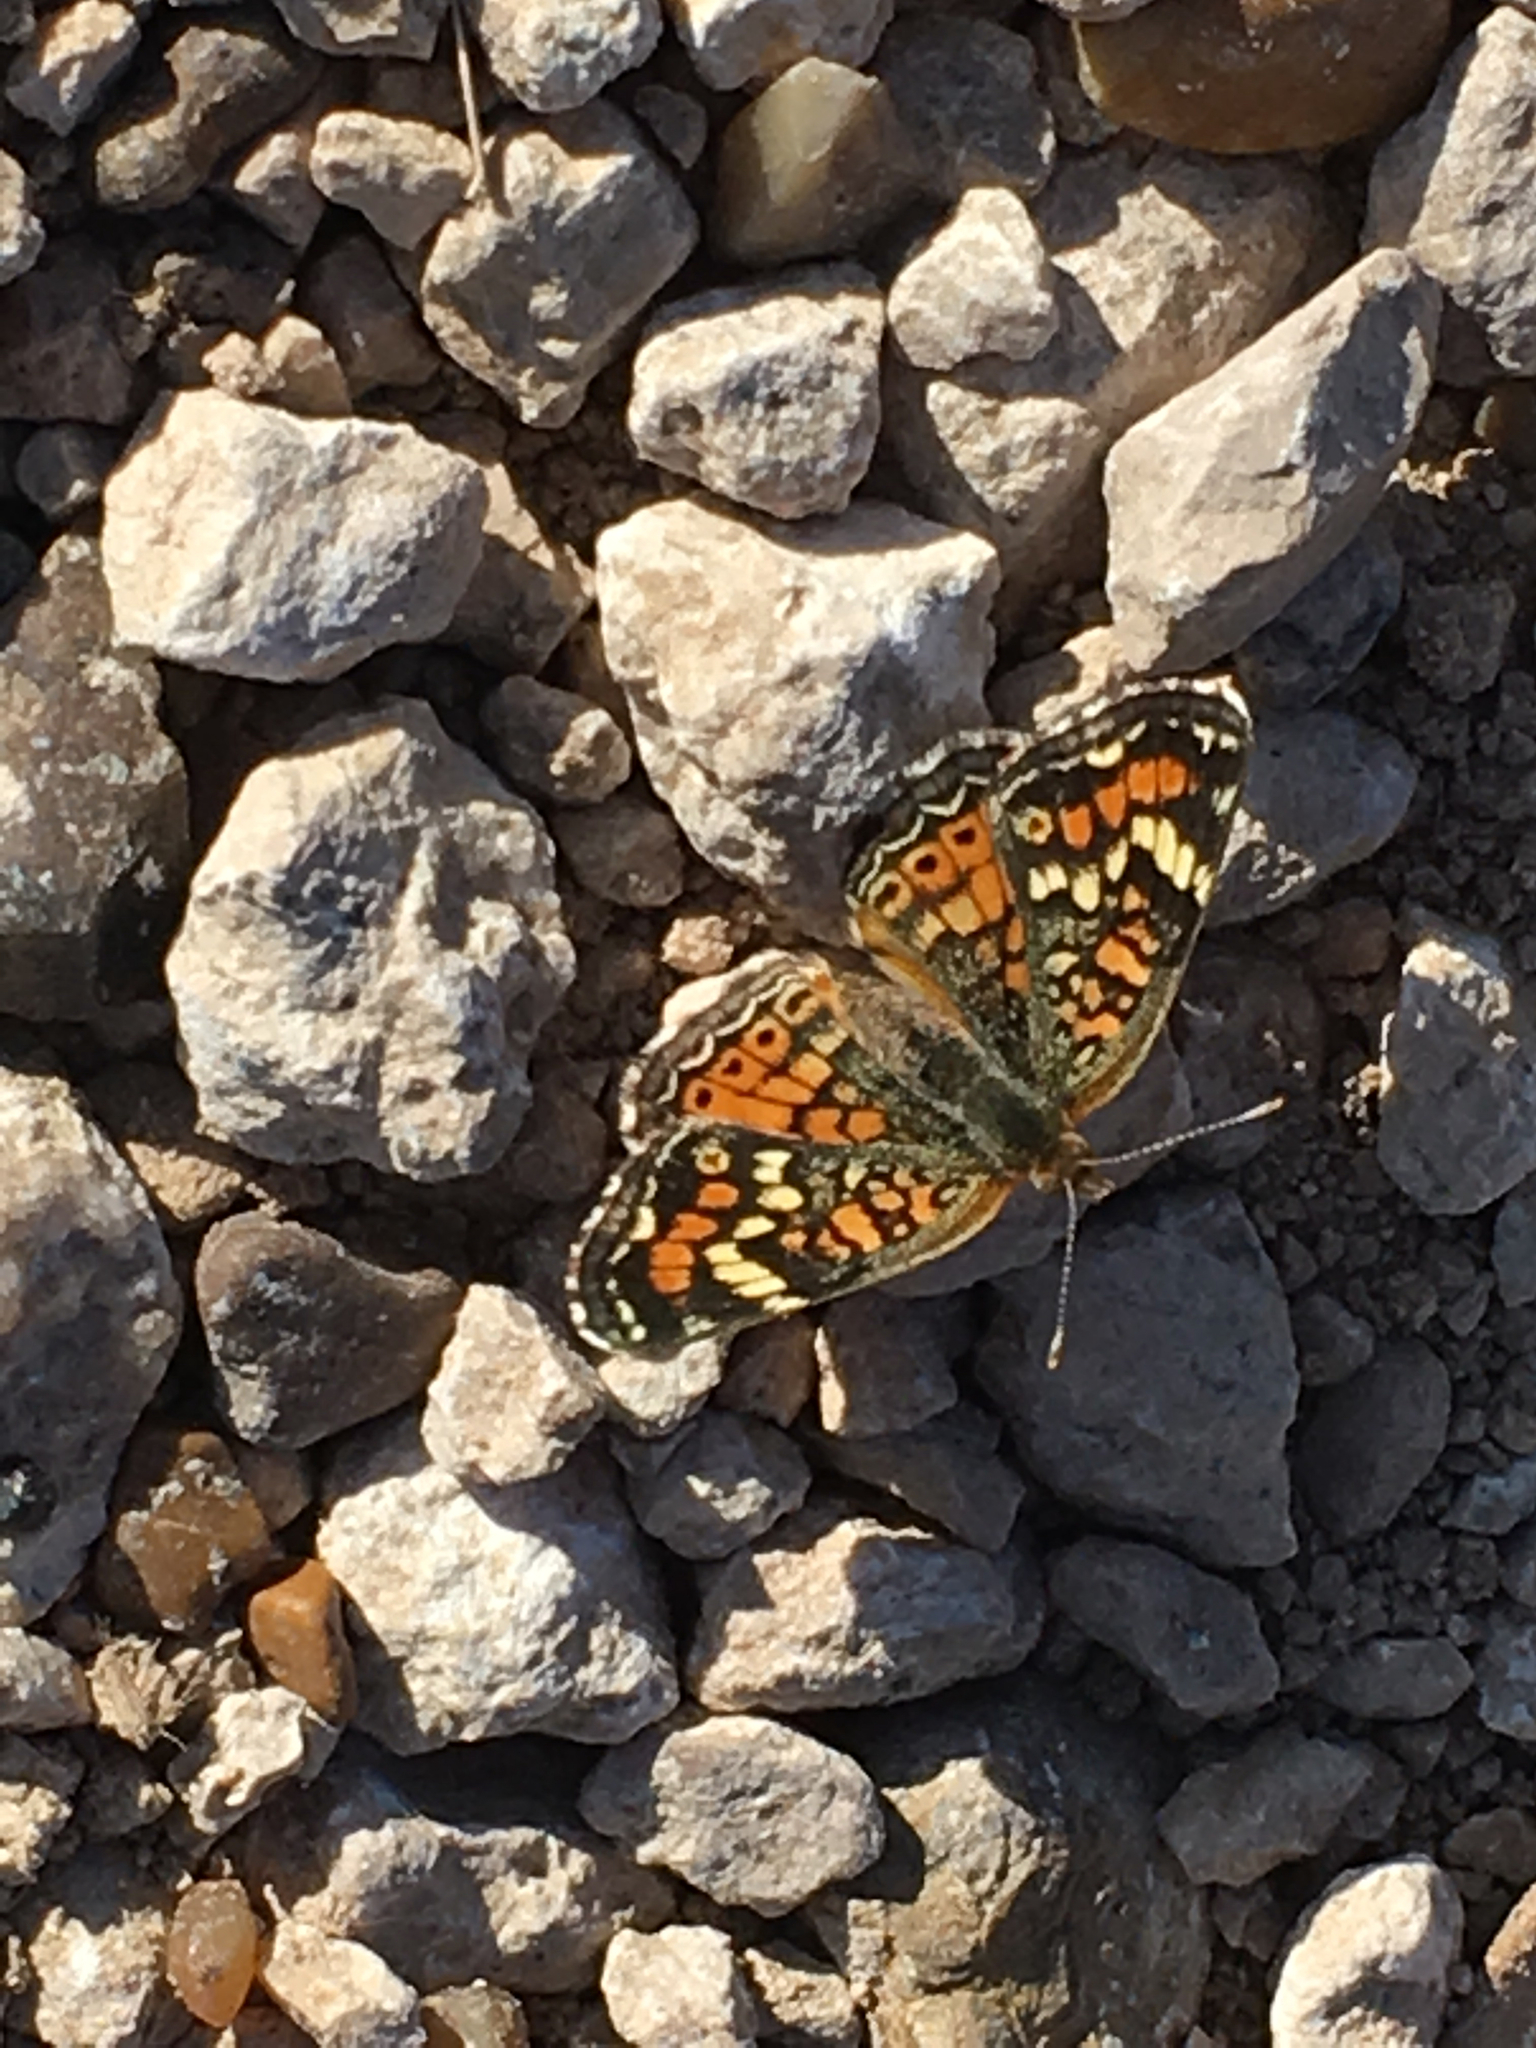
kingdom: Animalia
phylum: Arthropoda
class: Insecta
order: Lepidoptera
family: Nymphalidae
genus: Phyciodes
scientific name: Phyciodes phaon
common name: Phaon crescent
